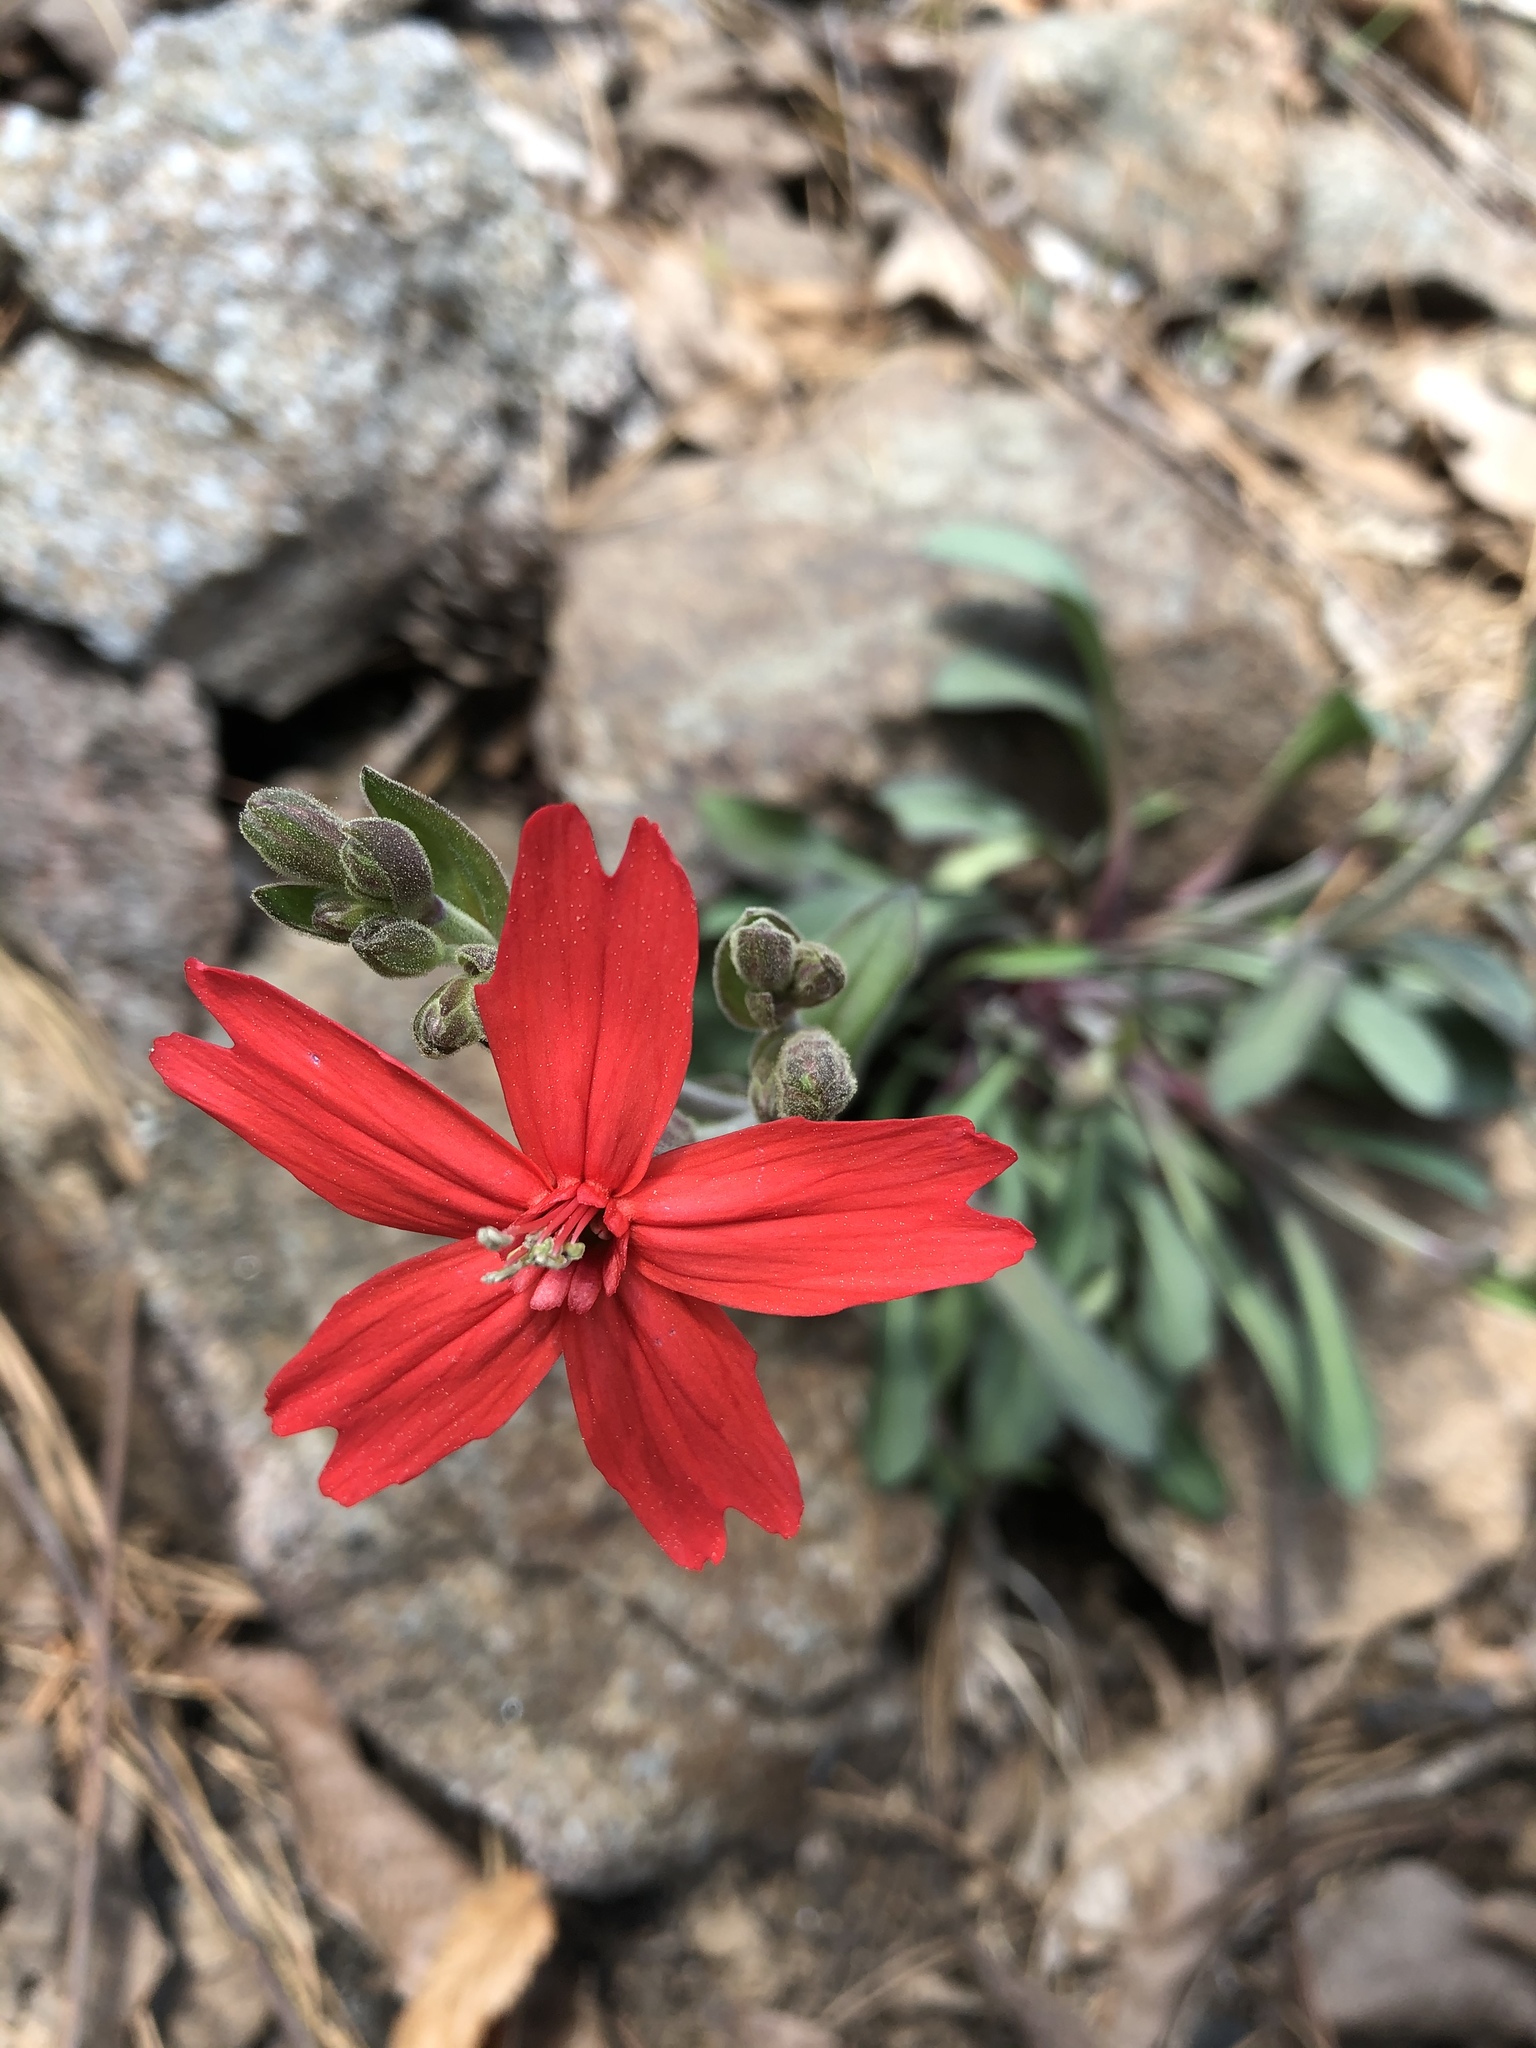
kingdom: Plantae
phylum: Tracheophyta
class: Magnoliopsida
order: Caryophyllales
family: Caryophyllaceae
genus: Silene
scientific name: Silene virginica
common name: Fire-pink
